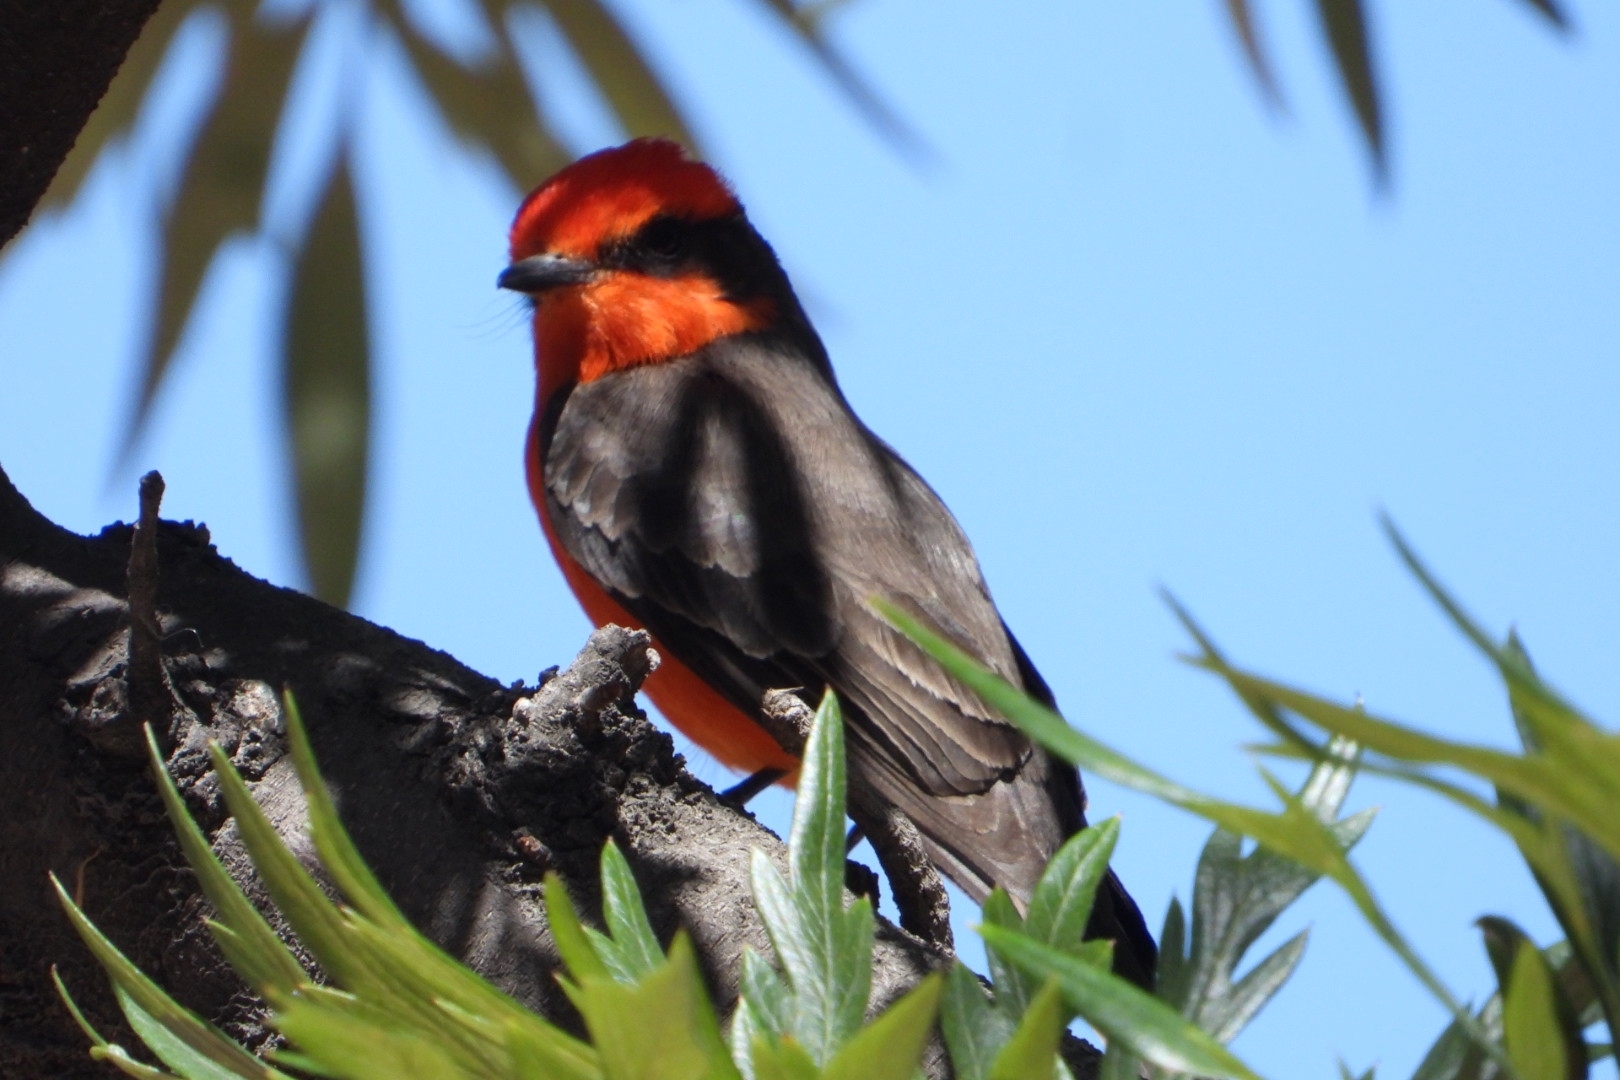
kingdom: Animalia
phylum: Chordata
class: Aves
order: Passeriformes
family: Tyrannidae
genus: Pyrocephalus
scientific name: Pyrocephalus rubinus
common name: Vermilion flycatcher
